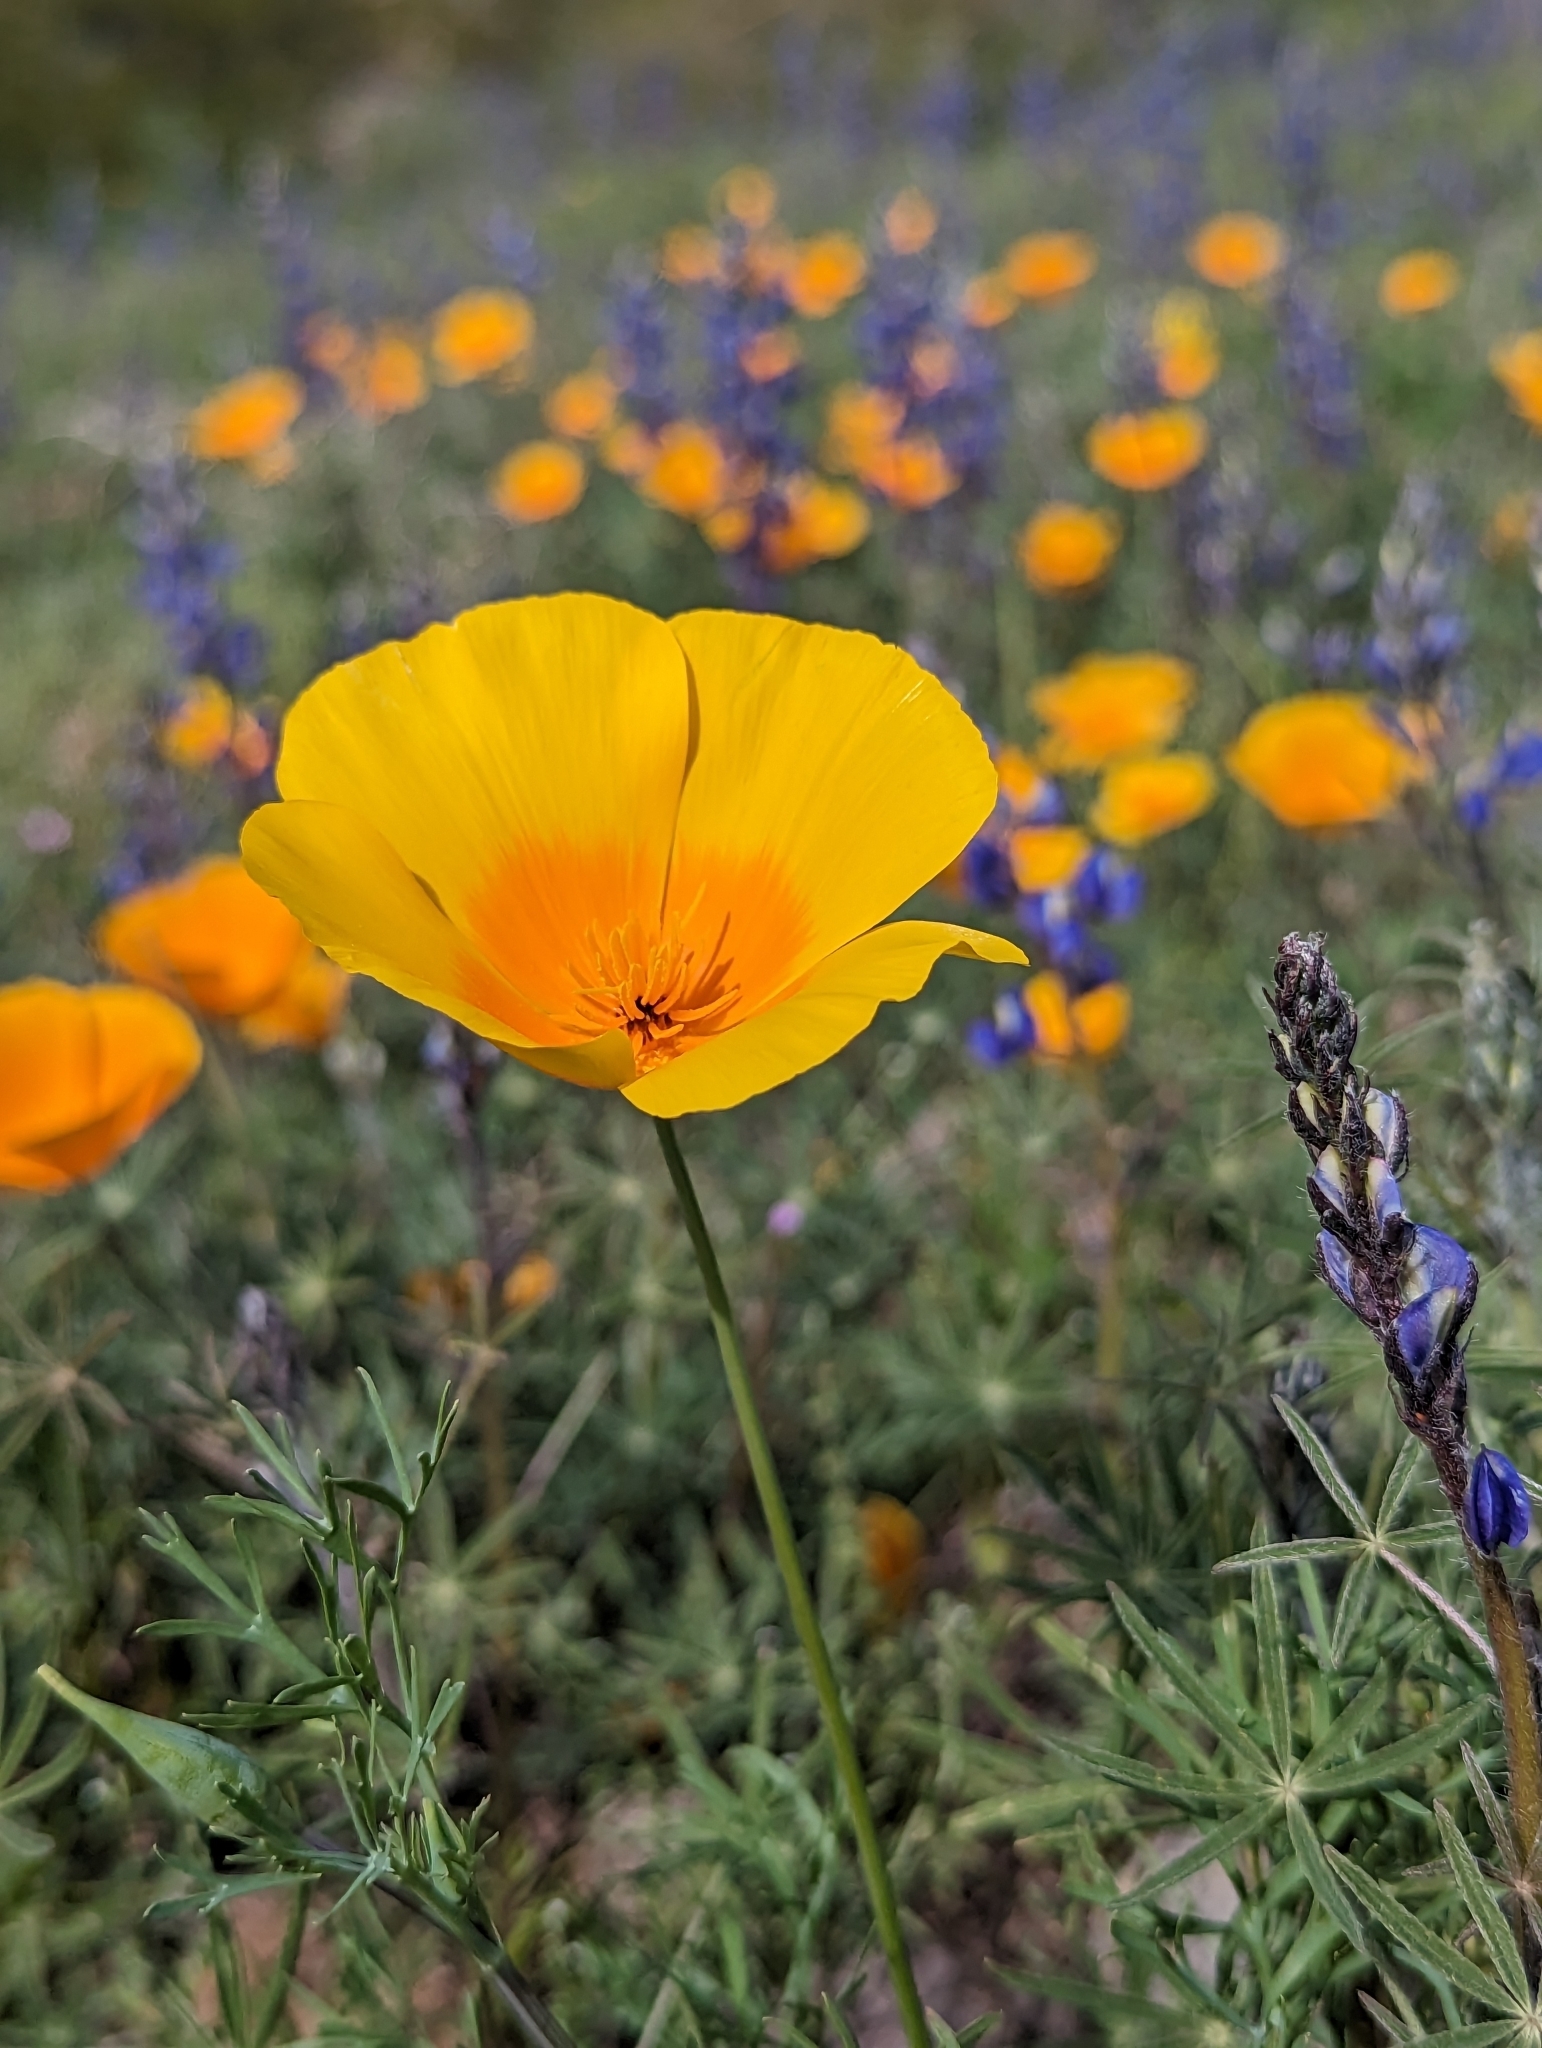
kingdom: Plantae
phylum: Tracheophyta
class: Magnoliopsida
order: Ranunculales
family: Papaveraceae
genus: Eschscholzia
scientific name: Eschscholzia californica
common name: California poppy
